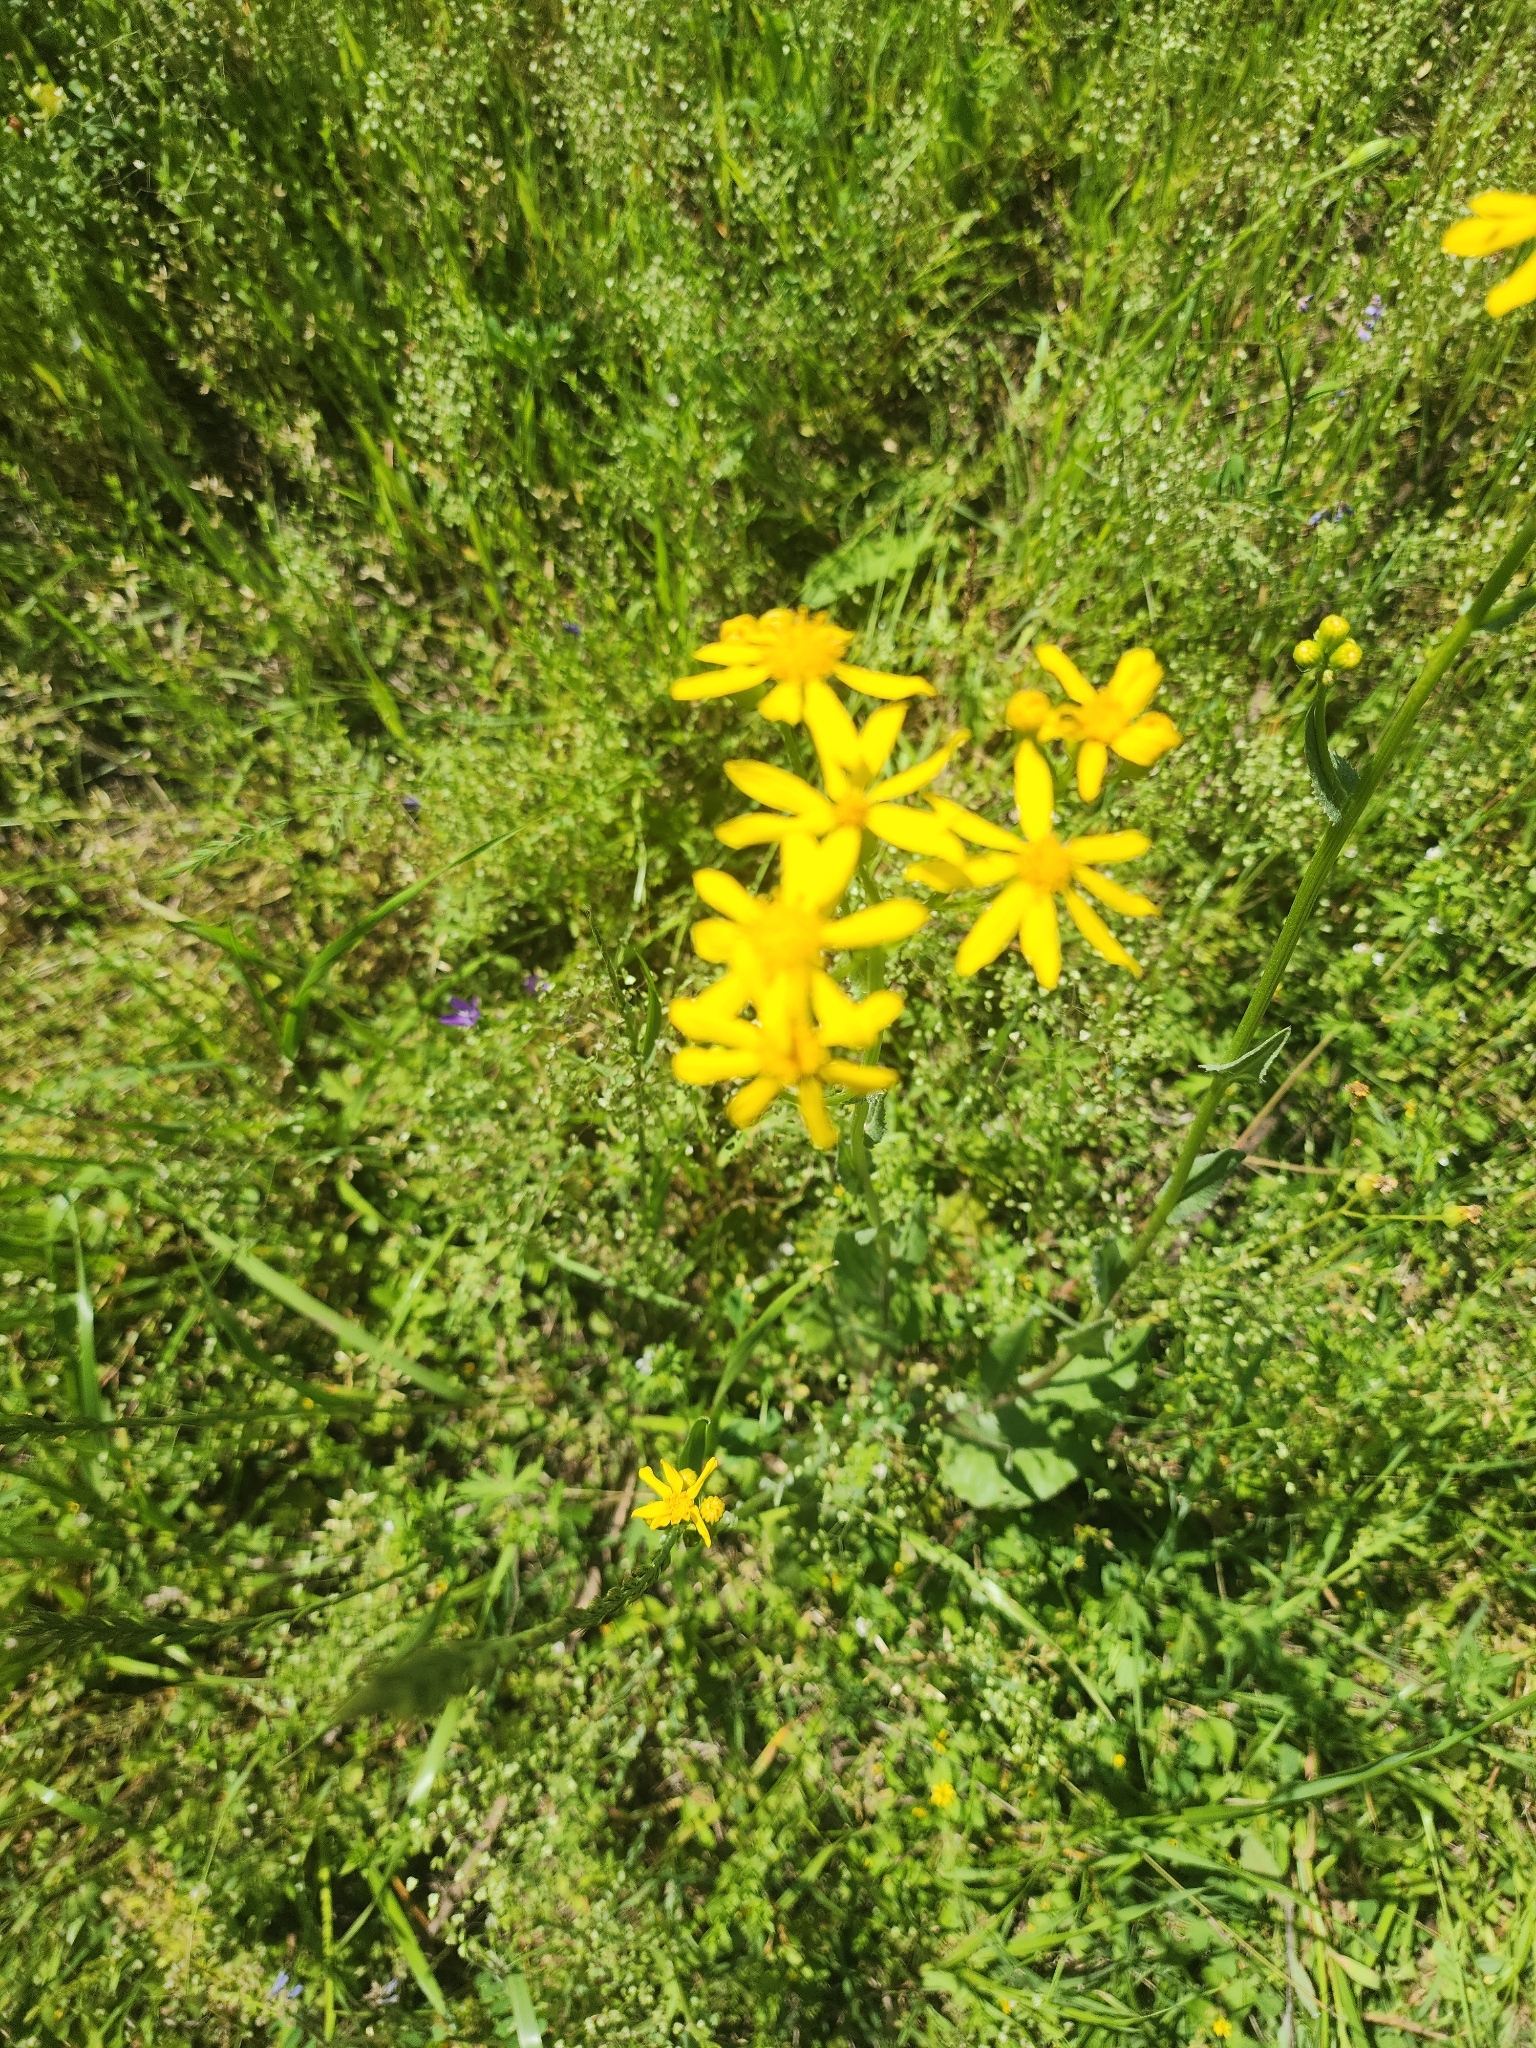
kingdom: Plantae
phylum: Tracheophyta
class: Magnoliopsida
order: Asterales
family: Asteraceae
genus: Senecio
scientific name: Senecio ampullaceus
